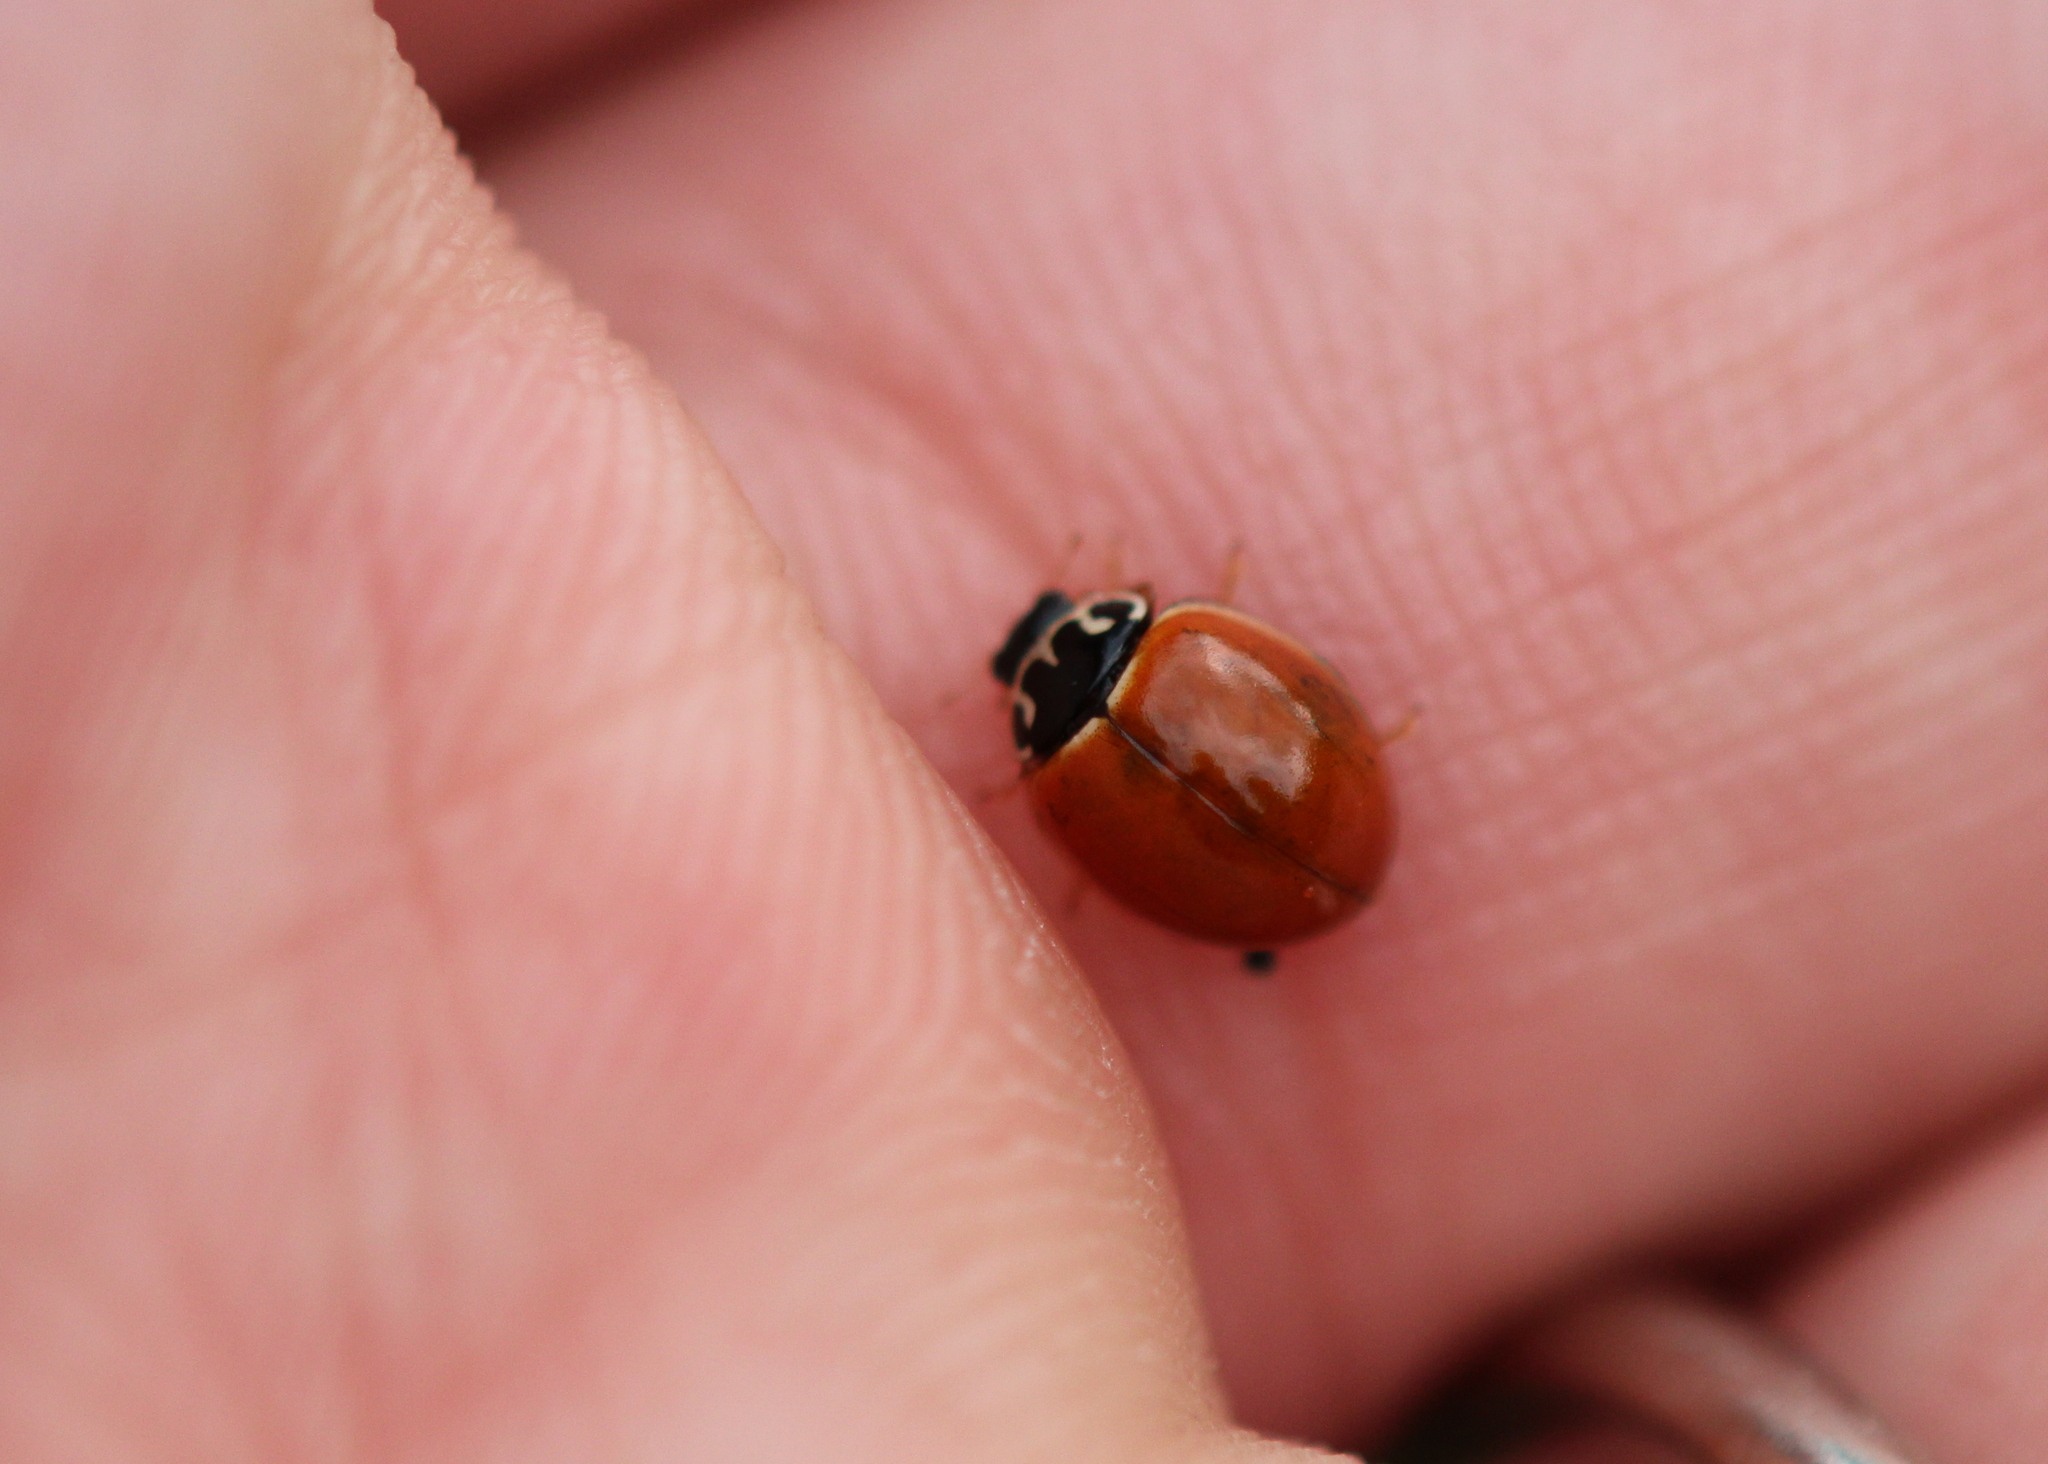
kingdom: Animalia
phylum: Arthropoda
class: Insecta
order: Coleoptera
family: Coccinellidae
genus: Cycloneda
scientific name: Cycloneda munda
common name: Polished lady beetle
